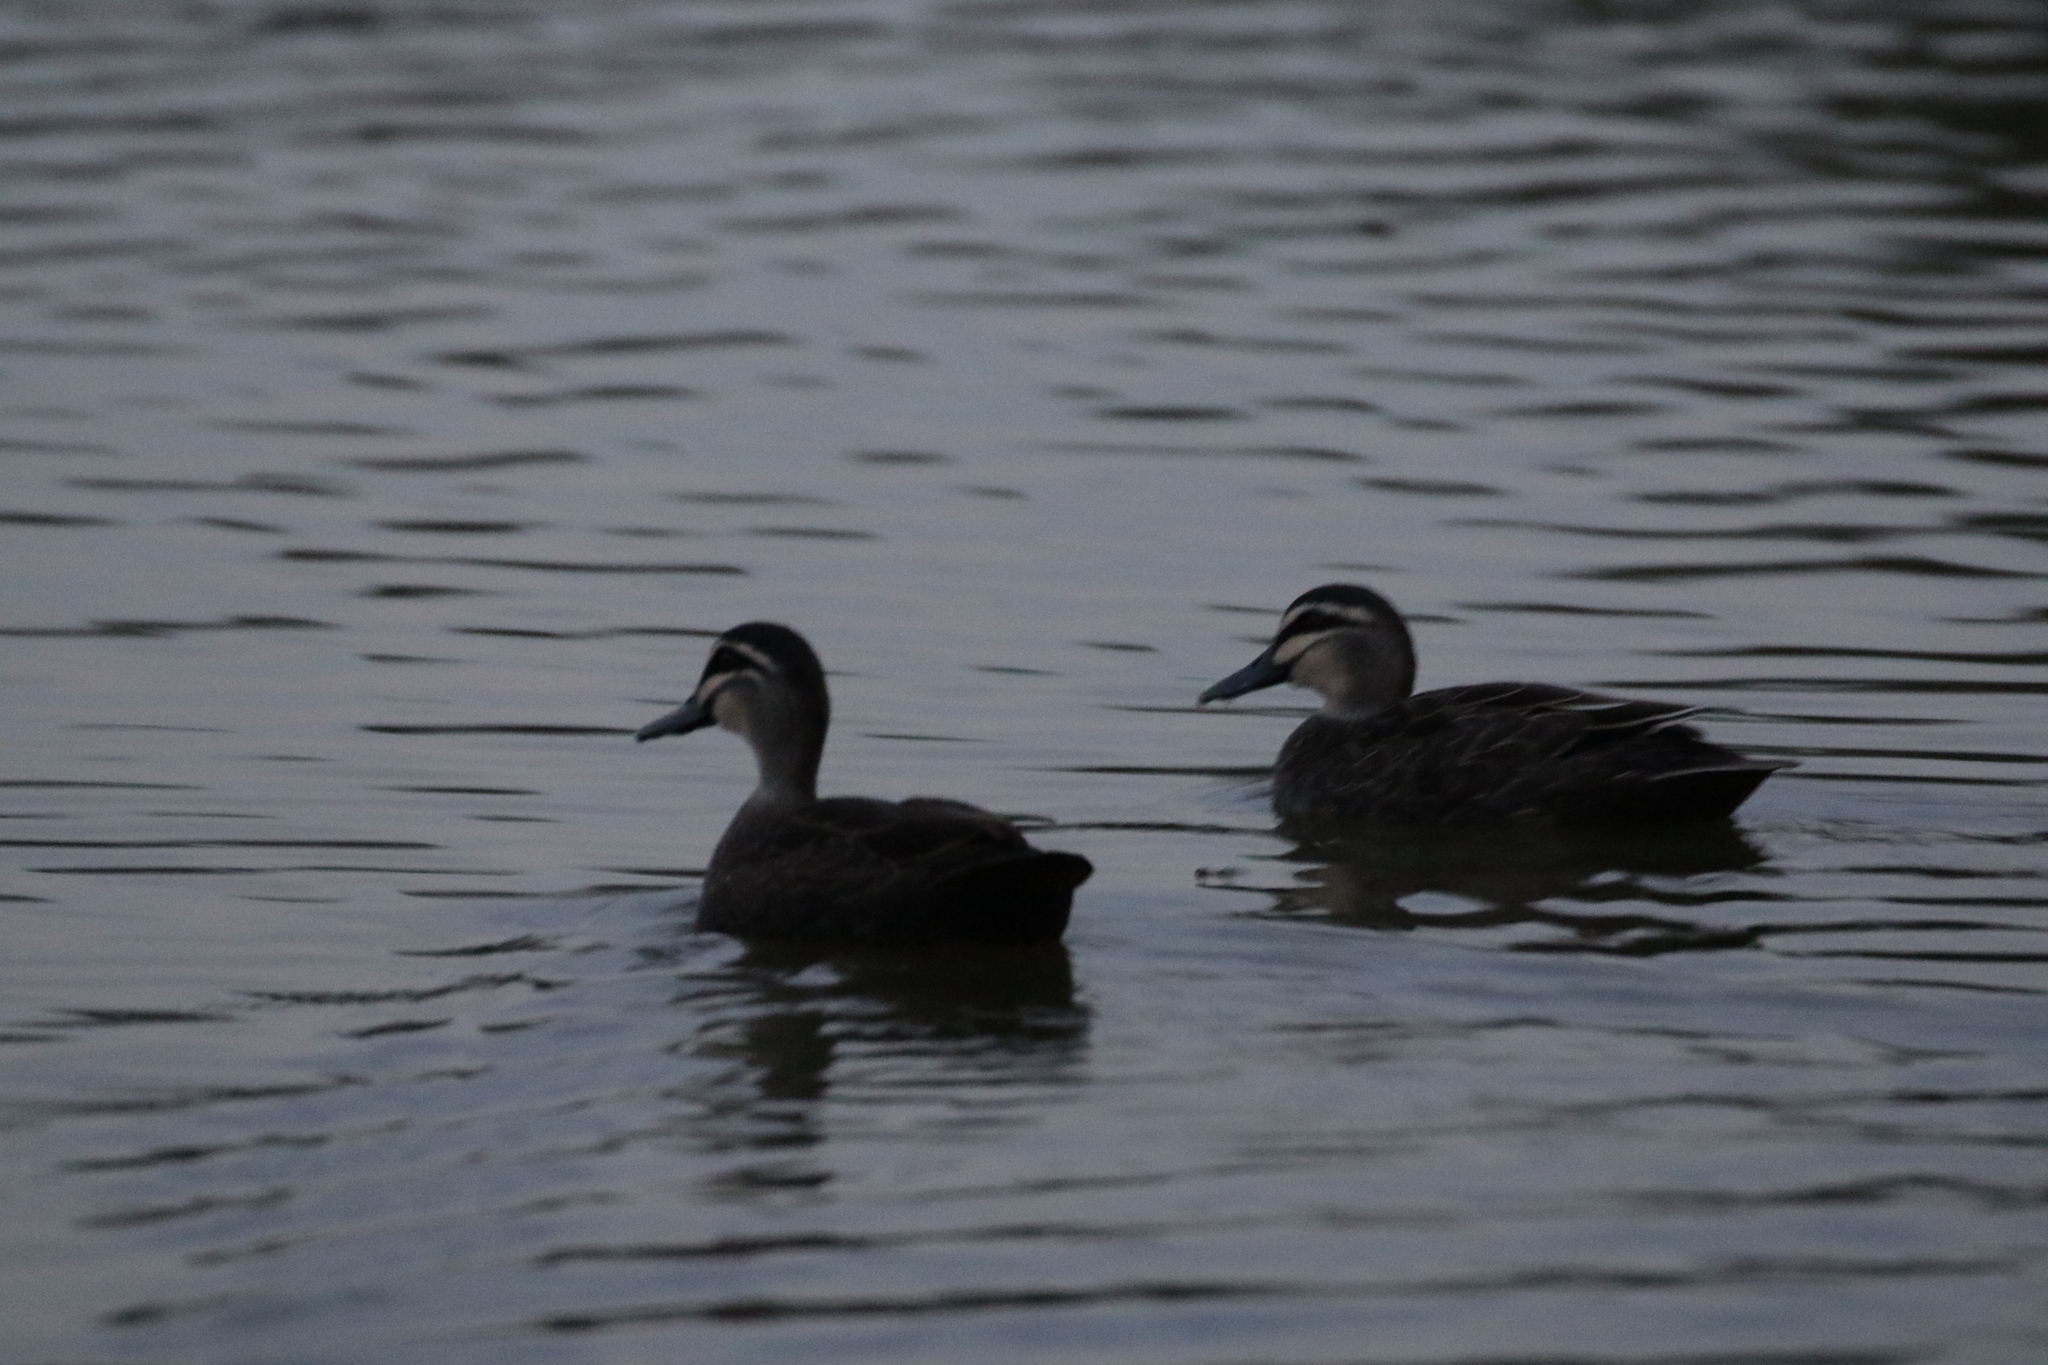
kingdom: Animalia
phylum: Chordata
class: Aves
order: Anseriformes
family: Anatidae
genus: Anas
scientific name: Anas superciliosa
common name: Pacific black duck
